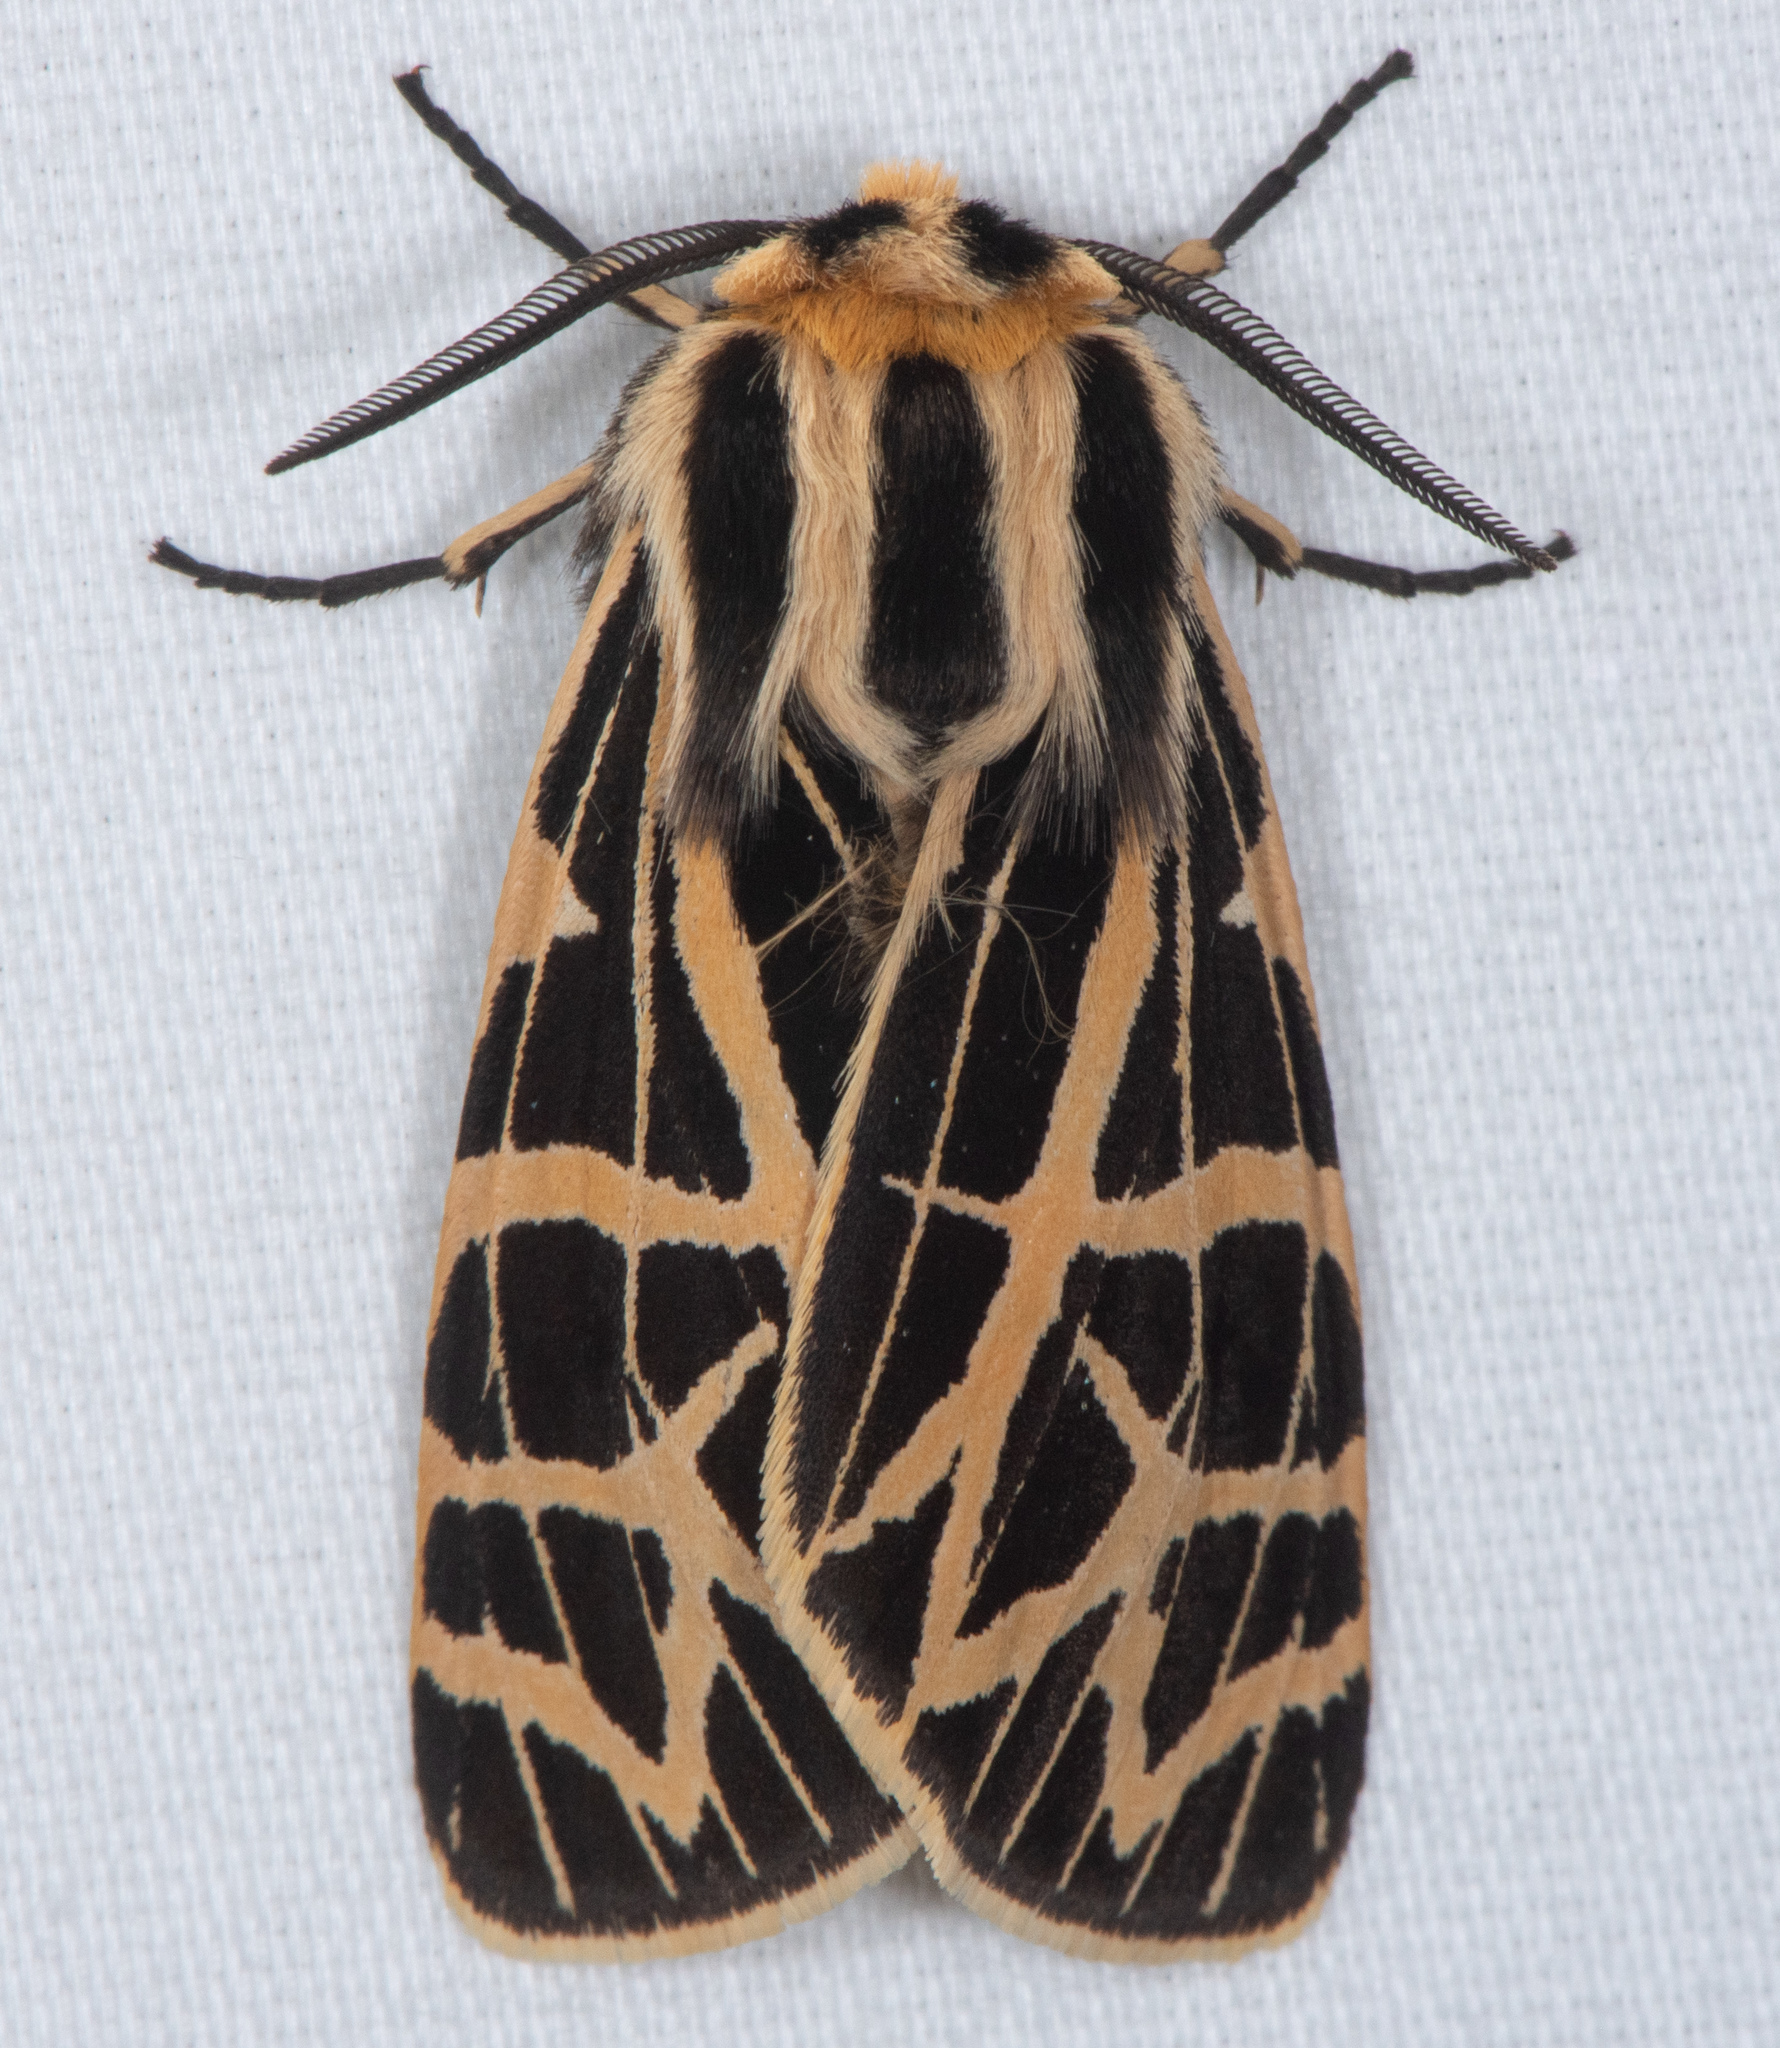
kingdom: Animalia
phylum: Arthropoda
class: Insecta
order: Lepidoptera
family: Erebidae
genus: Apantesis
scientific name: Apantesis
